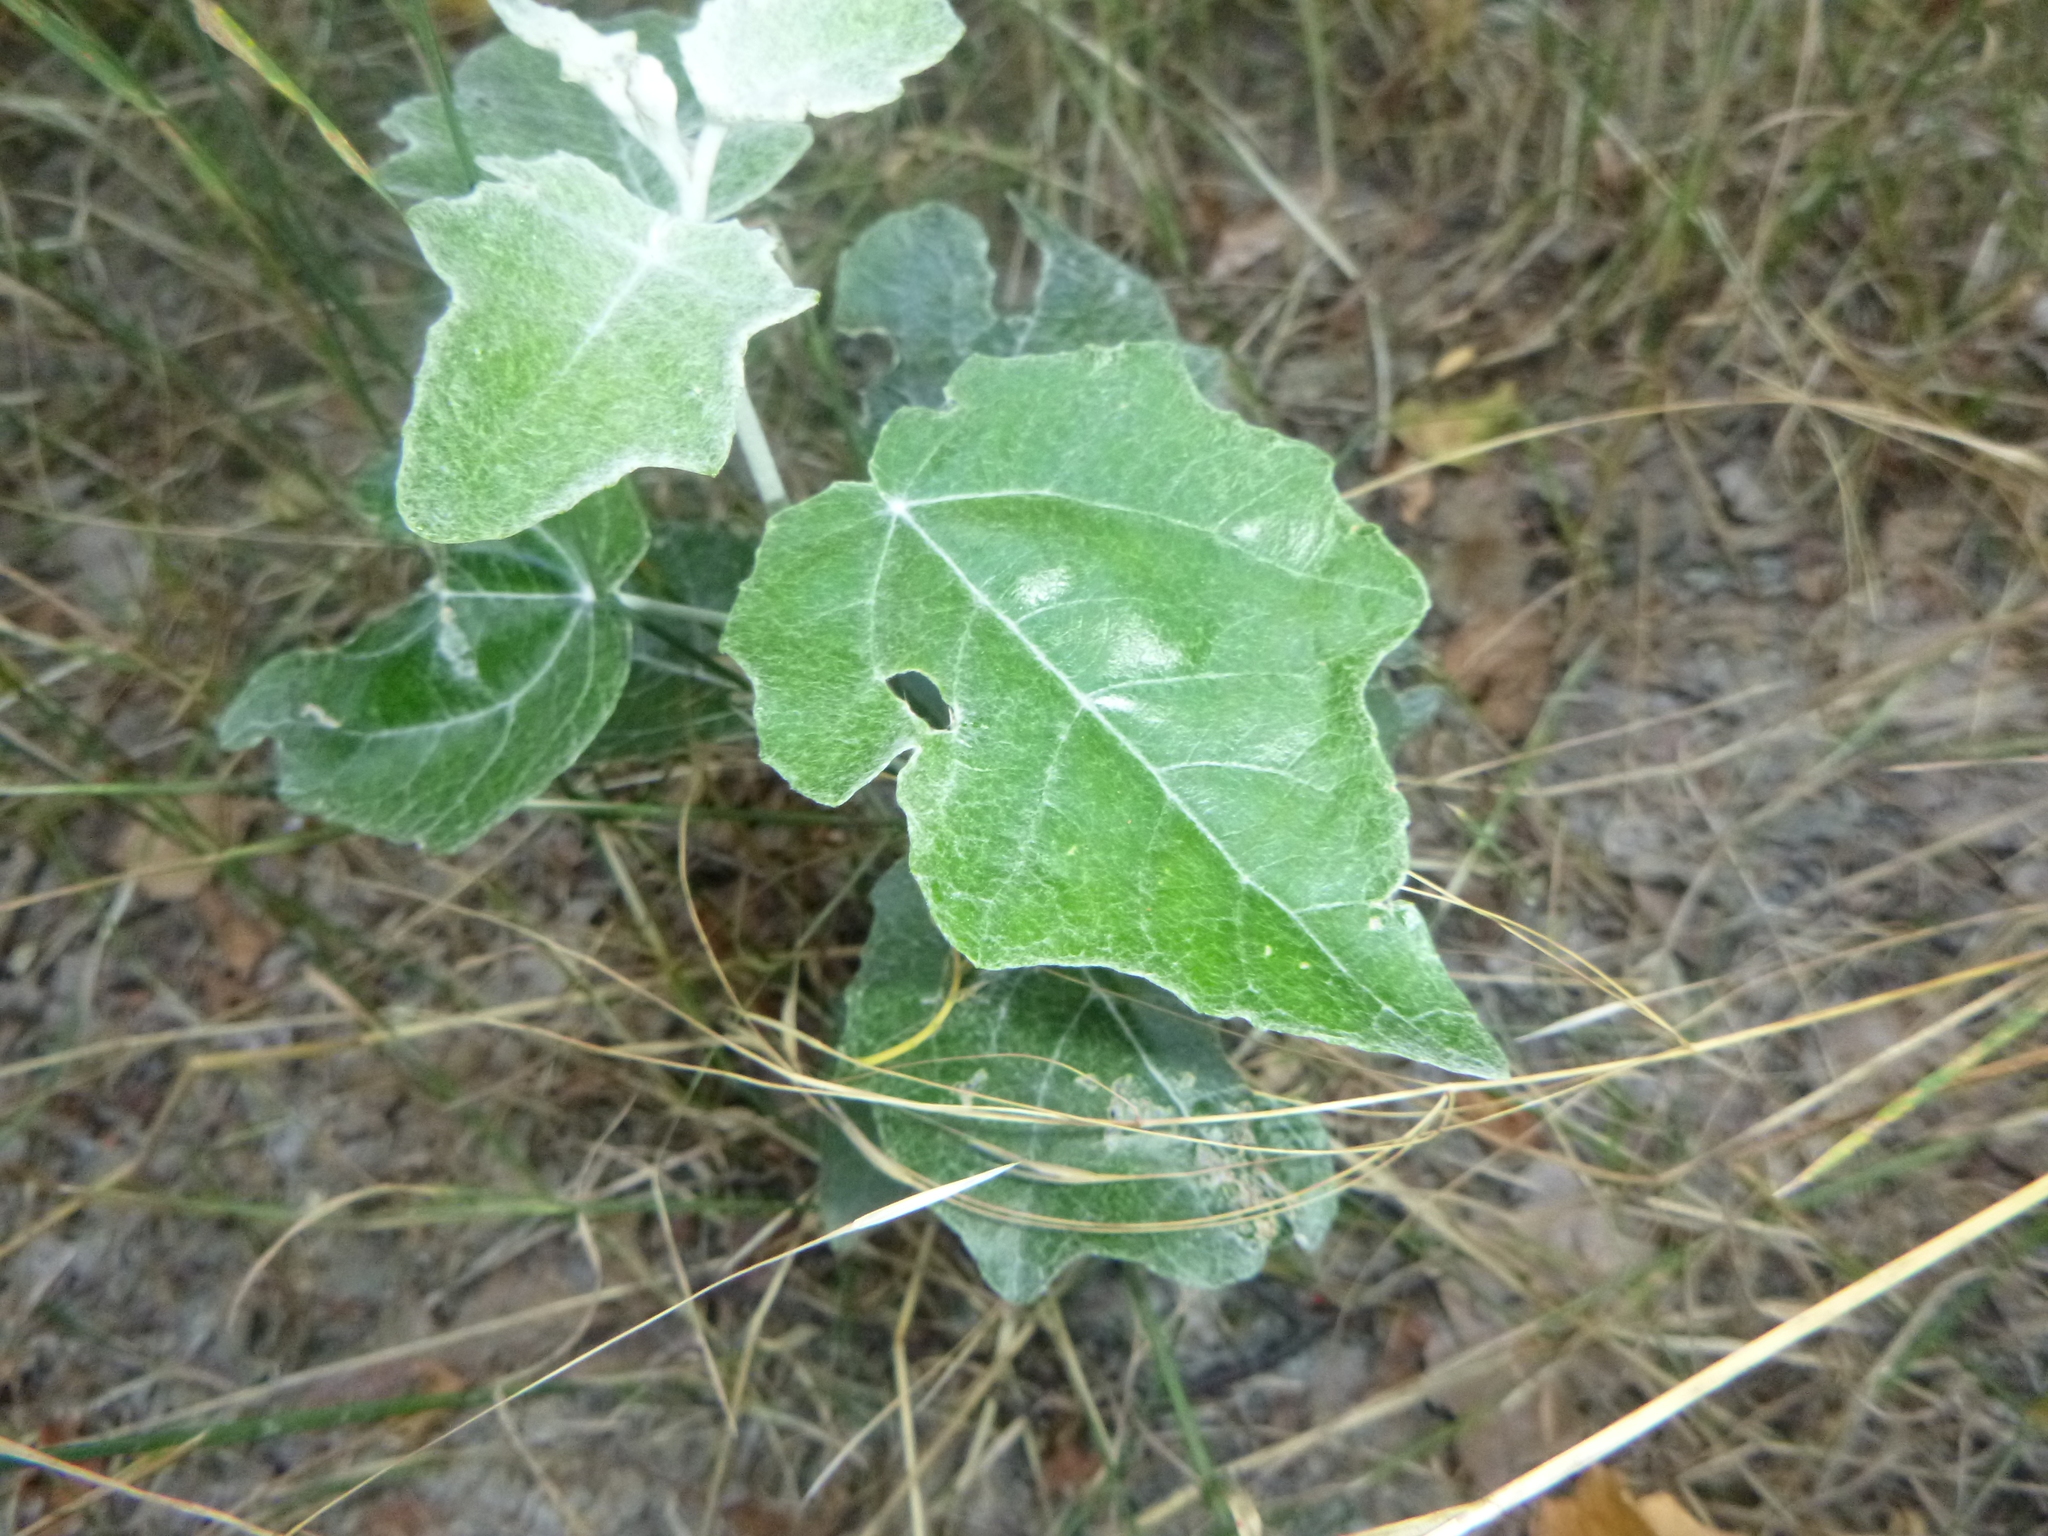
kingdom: Plantae
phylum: Tracheophyta
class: Magnoliopsida
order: Malpighiales
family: Salicaceae
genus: Populus
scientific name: Populus alba
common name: White poplar
